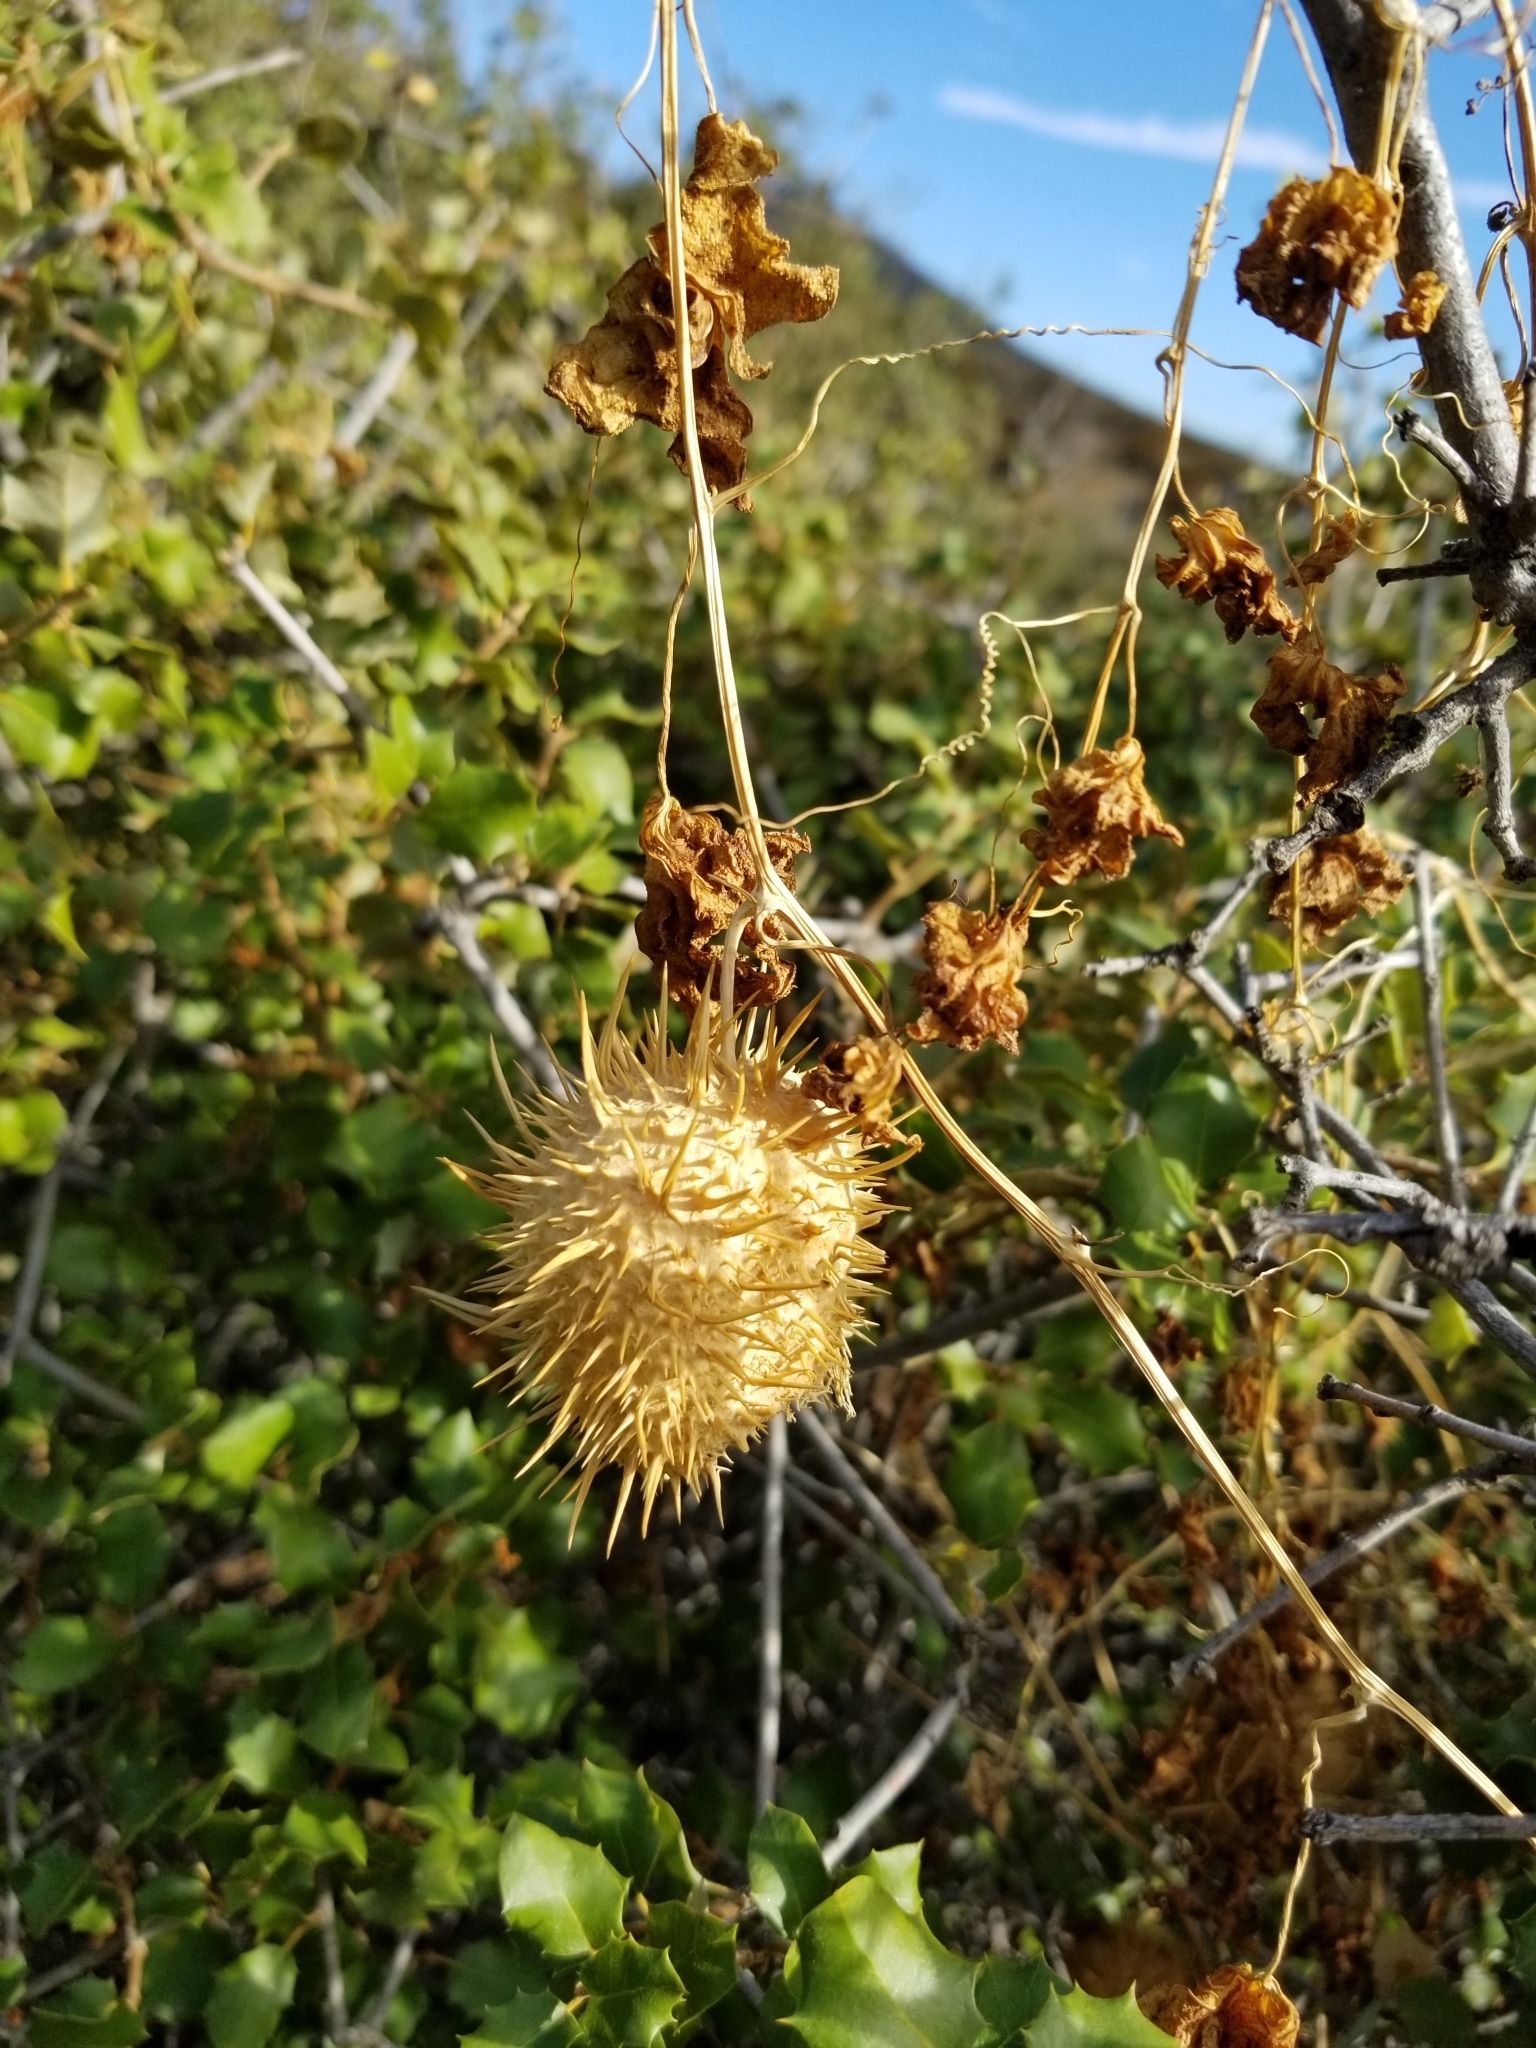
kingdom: Plantae
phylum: Tracheophyta
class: Magnoliopsida
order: Cucurbitales
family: Cucurbitaceae
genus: Marah
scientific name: Marah macrocarpa
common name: Cucamonga manroot
